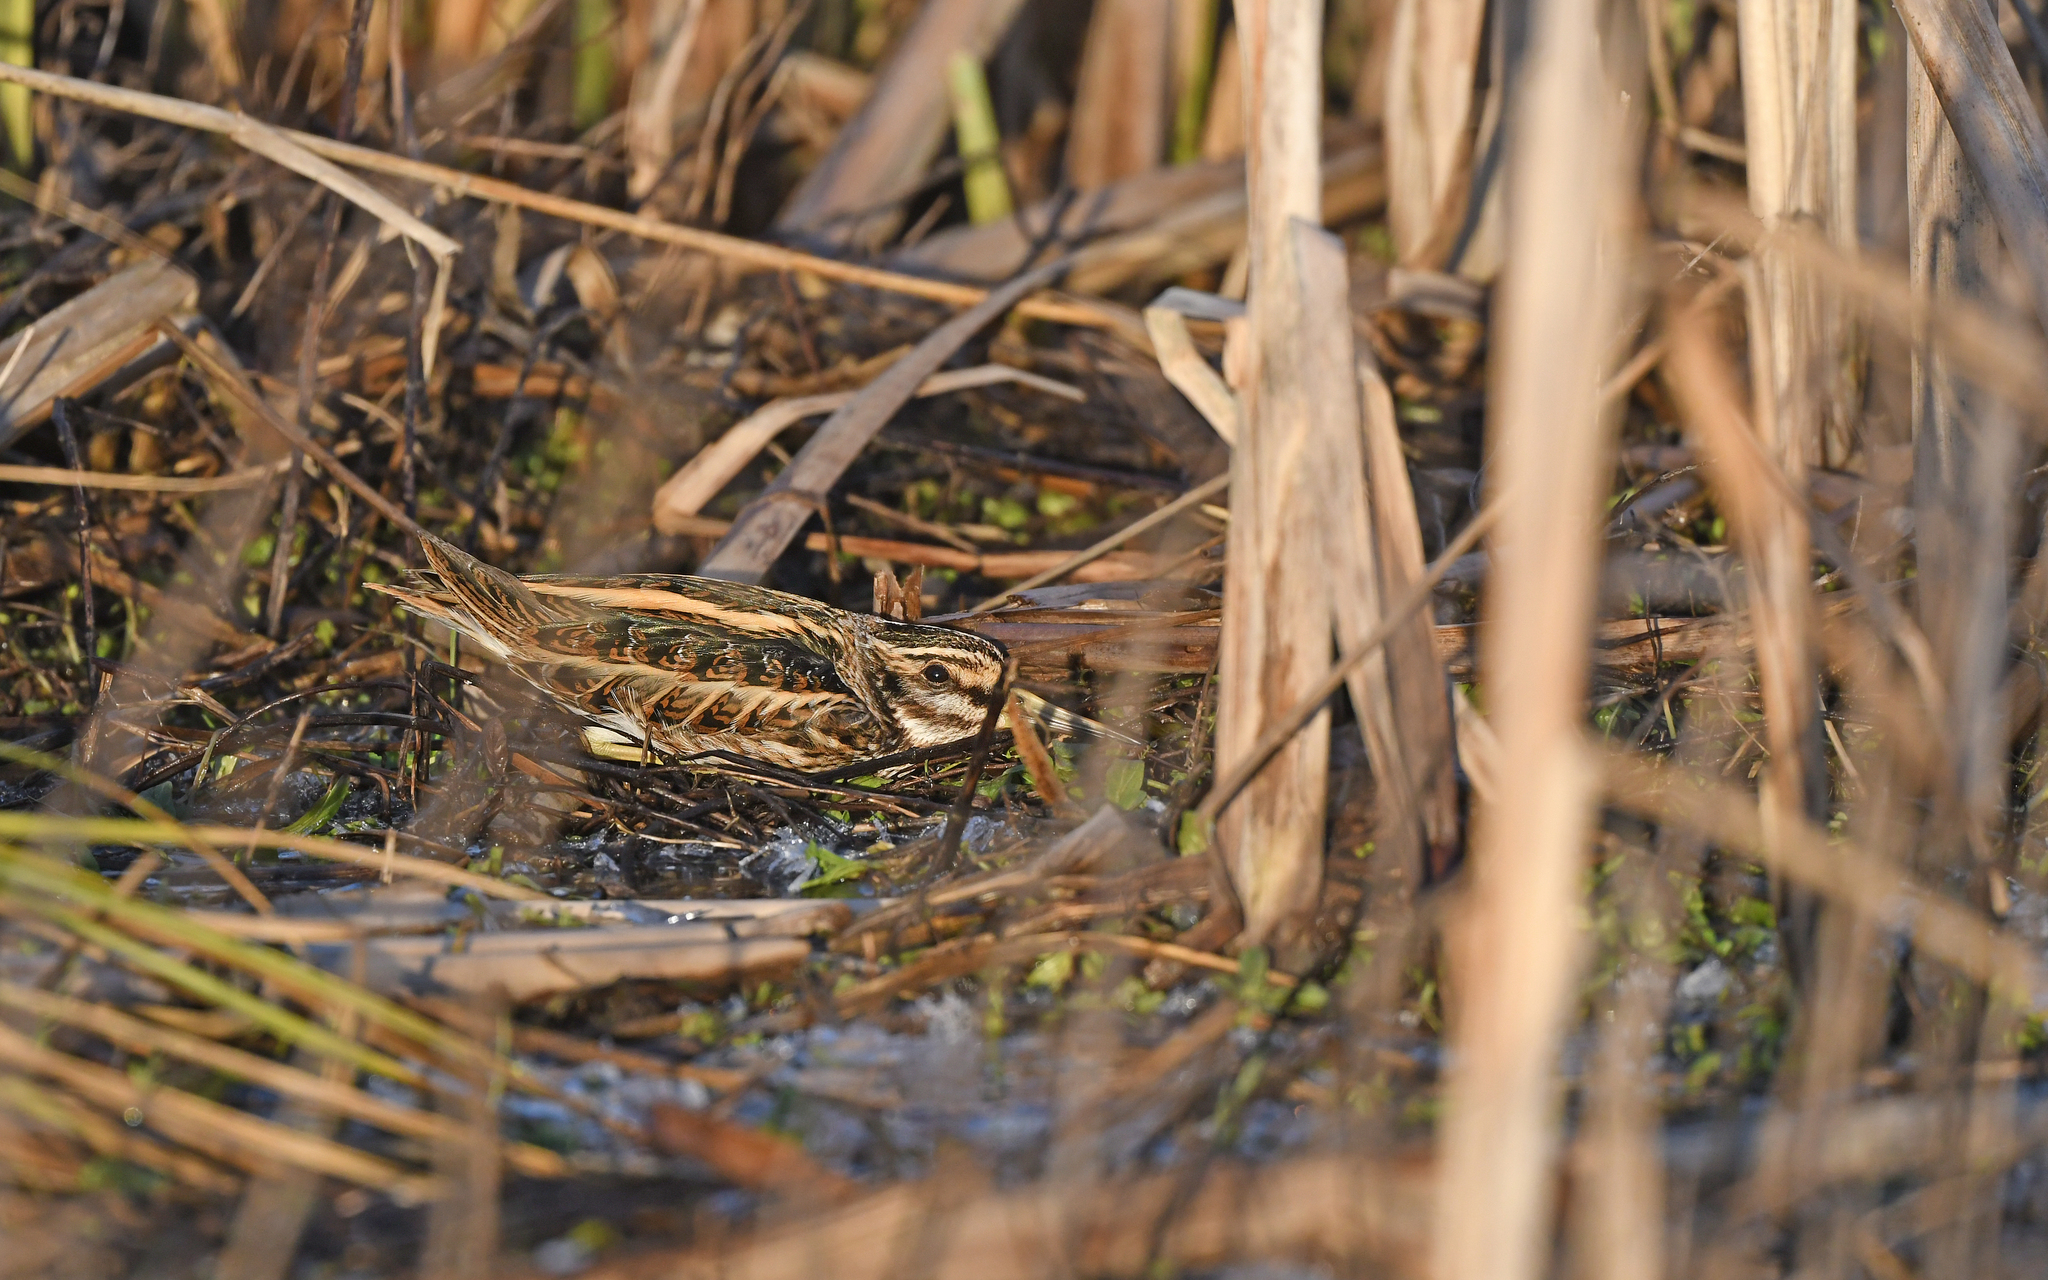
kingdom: Animalia
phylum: Chordata
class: Aves
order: Charadriiformes
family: Scolopacidae
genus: Lymnocryptes
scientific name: Lymnocryptes minimus
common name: Jack snipe
